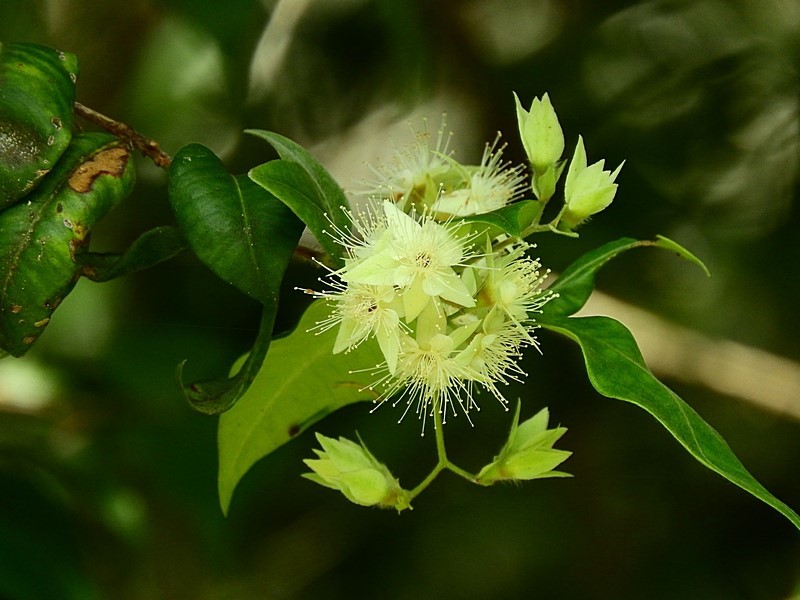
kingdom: Plantae
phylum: Tracheophyta
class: Magnoliopsida
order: Myrtales
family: Myrtaceae
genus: Backhousia
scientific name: Backhousia myrtifolia
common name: Carrol
